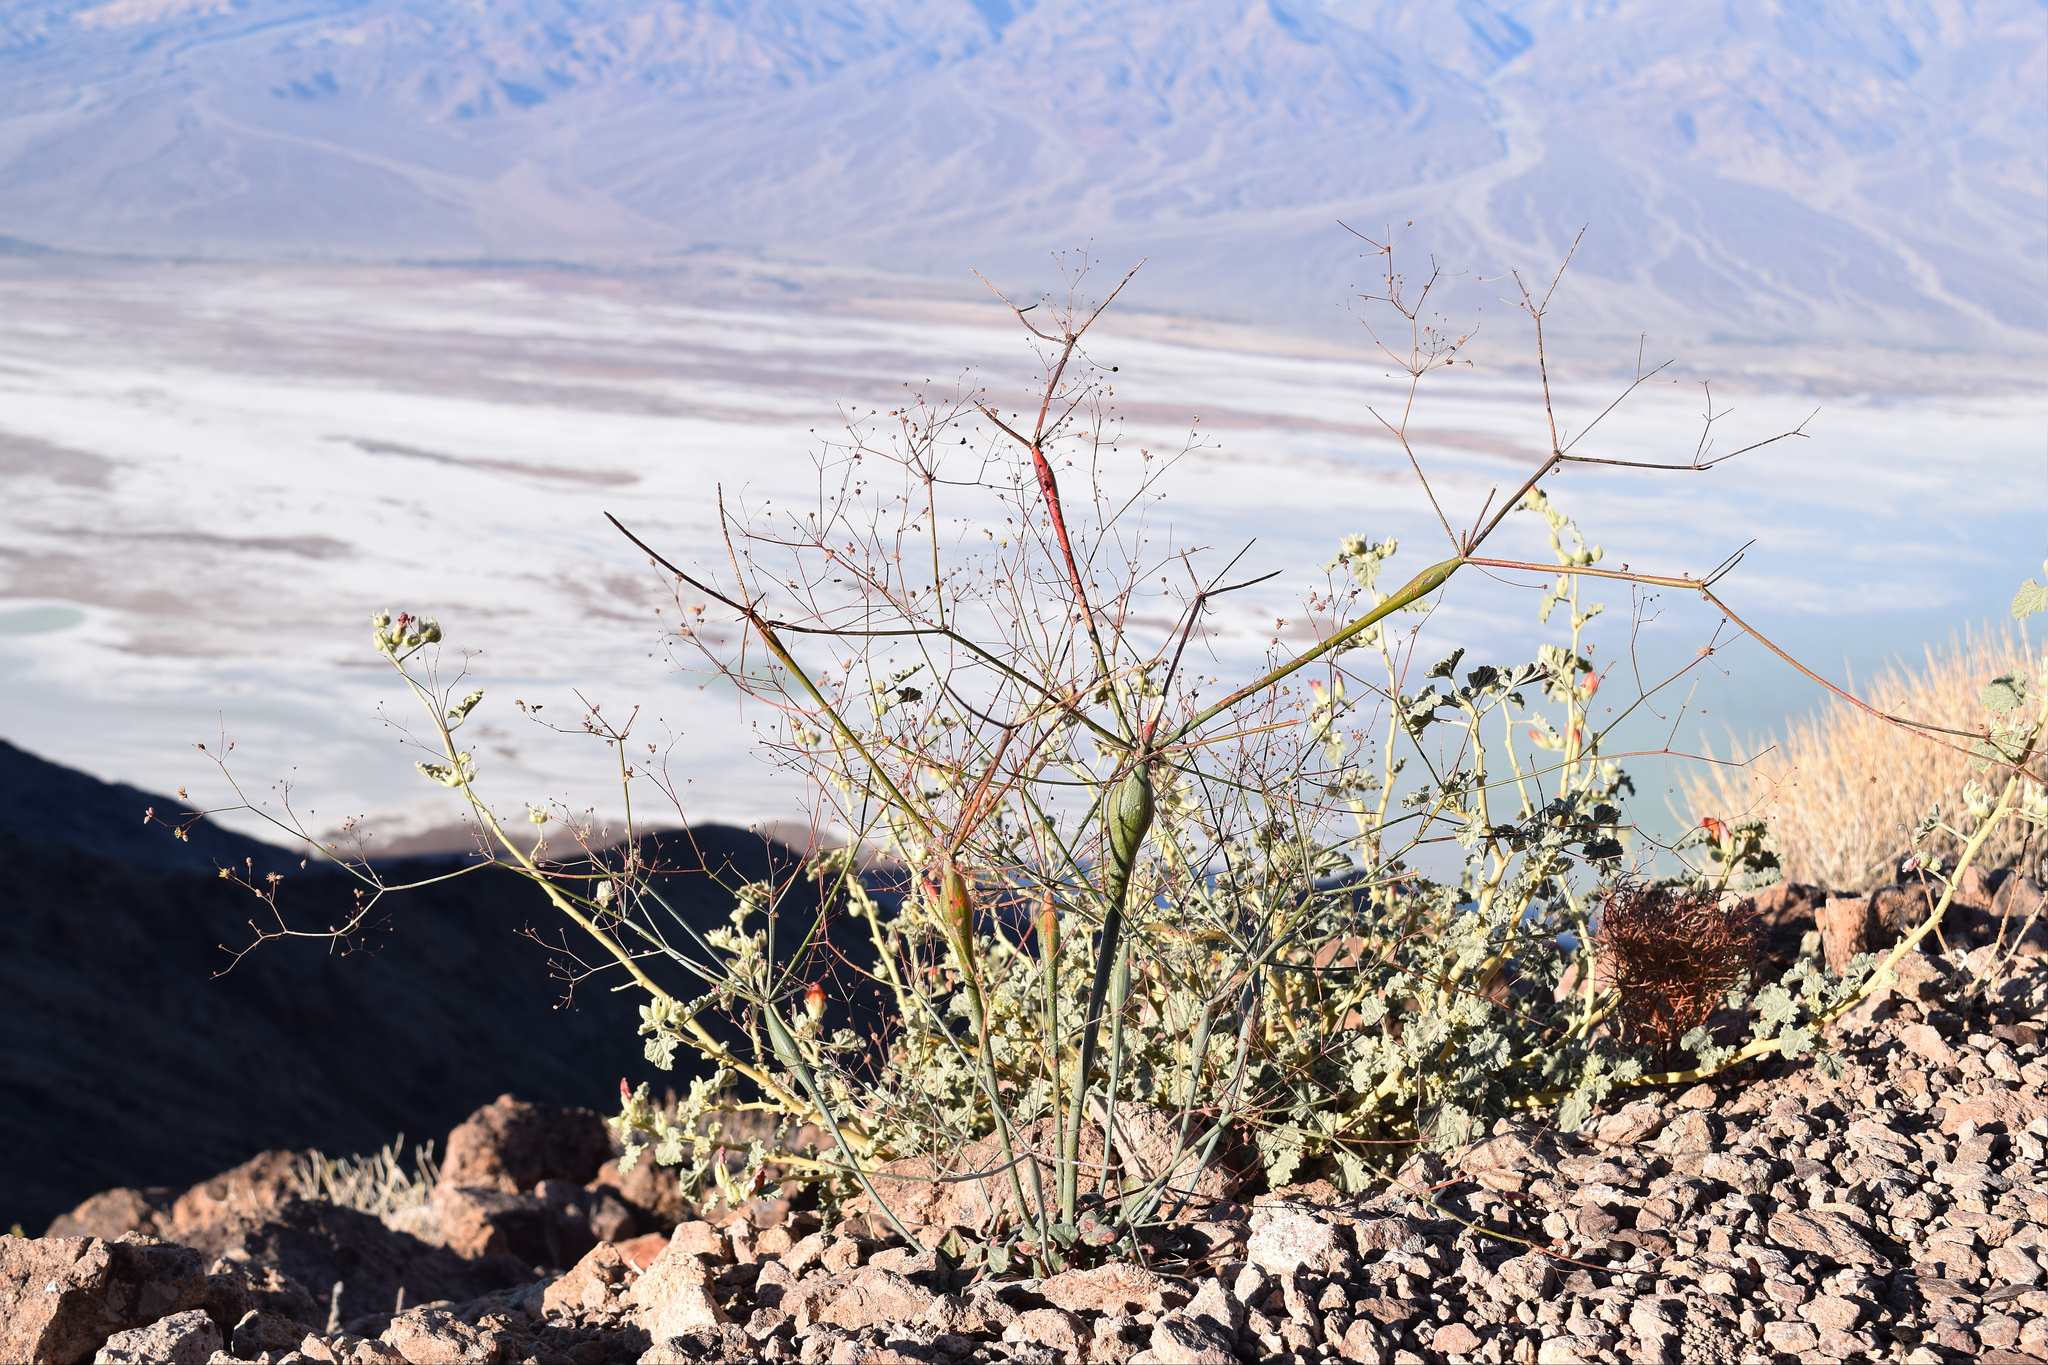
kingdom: Plantae
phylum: Tracheophyta
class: Magnoliopsida
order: Caryophyllales
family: Polygonaceae
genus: Eriogonum
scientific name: Eriogonum inflatum
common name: Desert trumpet
